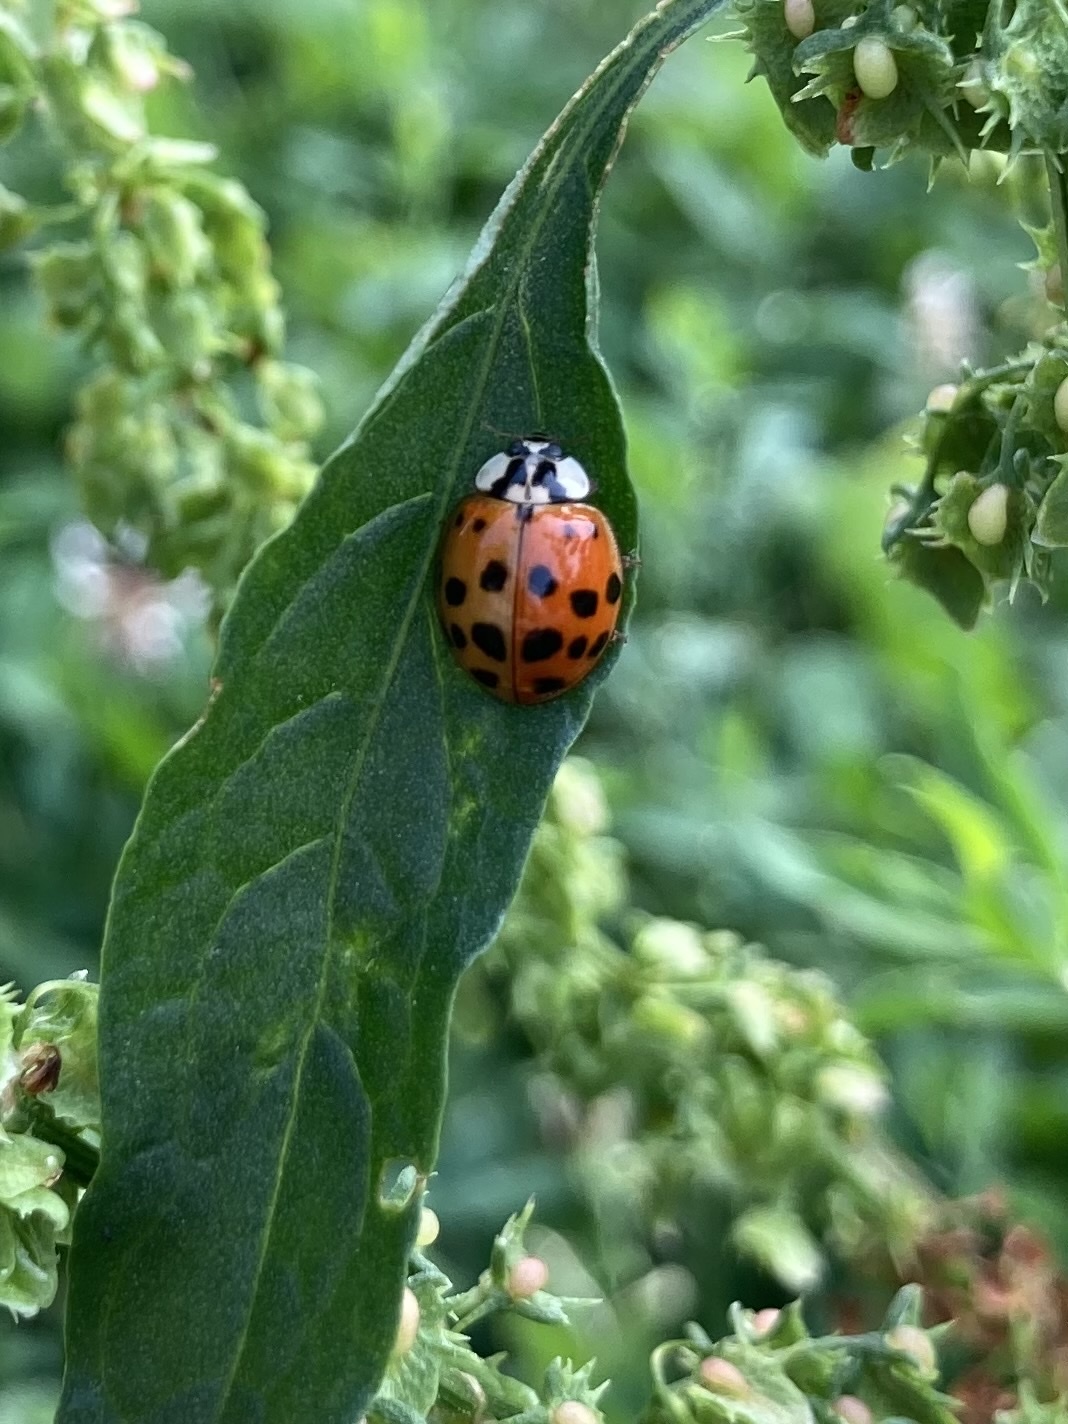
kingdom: Animalia
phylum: Arthropoda
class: Insecta
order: Coleoptera
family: Coccinellidae
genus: Harmonia
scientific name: Harmonia axyridis
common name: Harlequin ladybird
